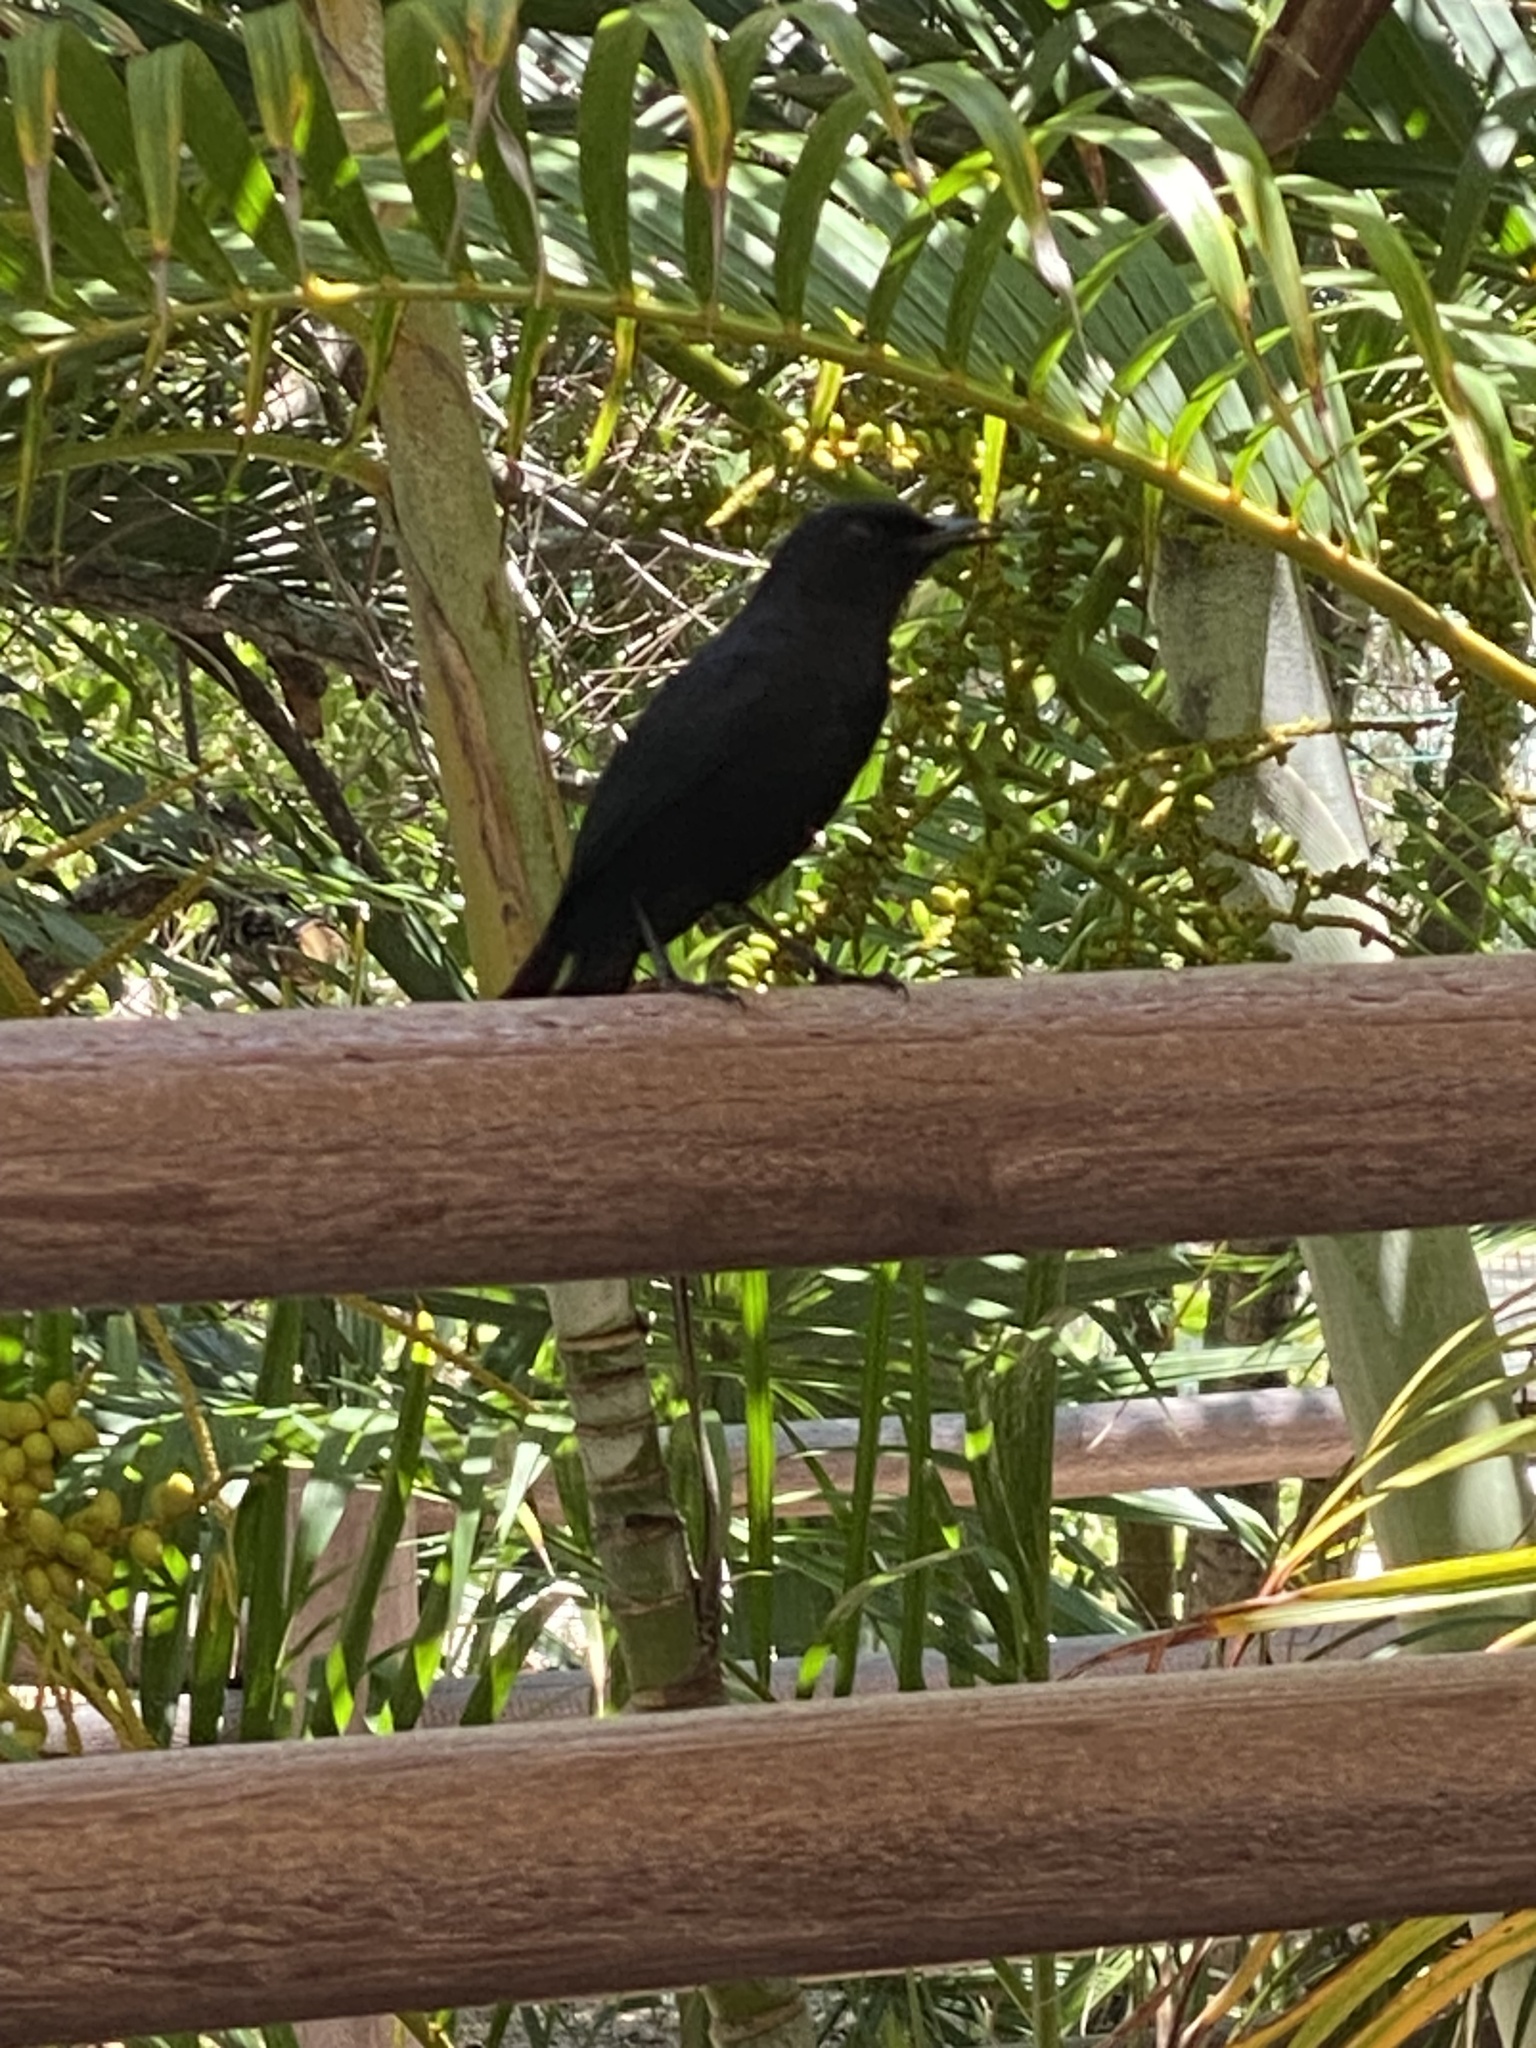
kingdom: Animalia
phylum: Chordata
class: Aves
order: Passeriformes
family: Mimidae
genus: Melanoptila
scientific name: Melanoptila glabrirostris
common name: Black catbird
